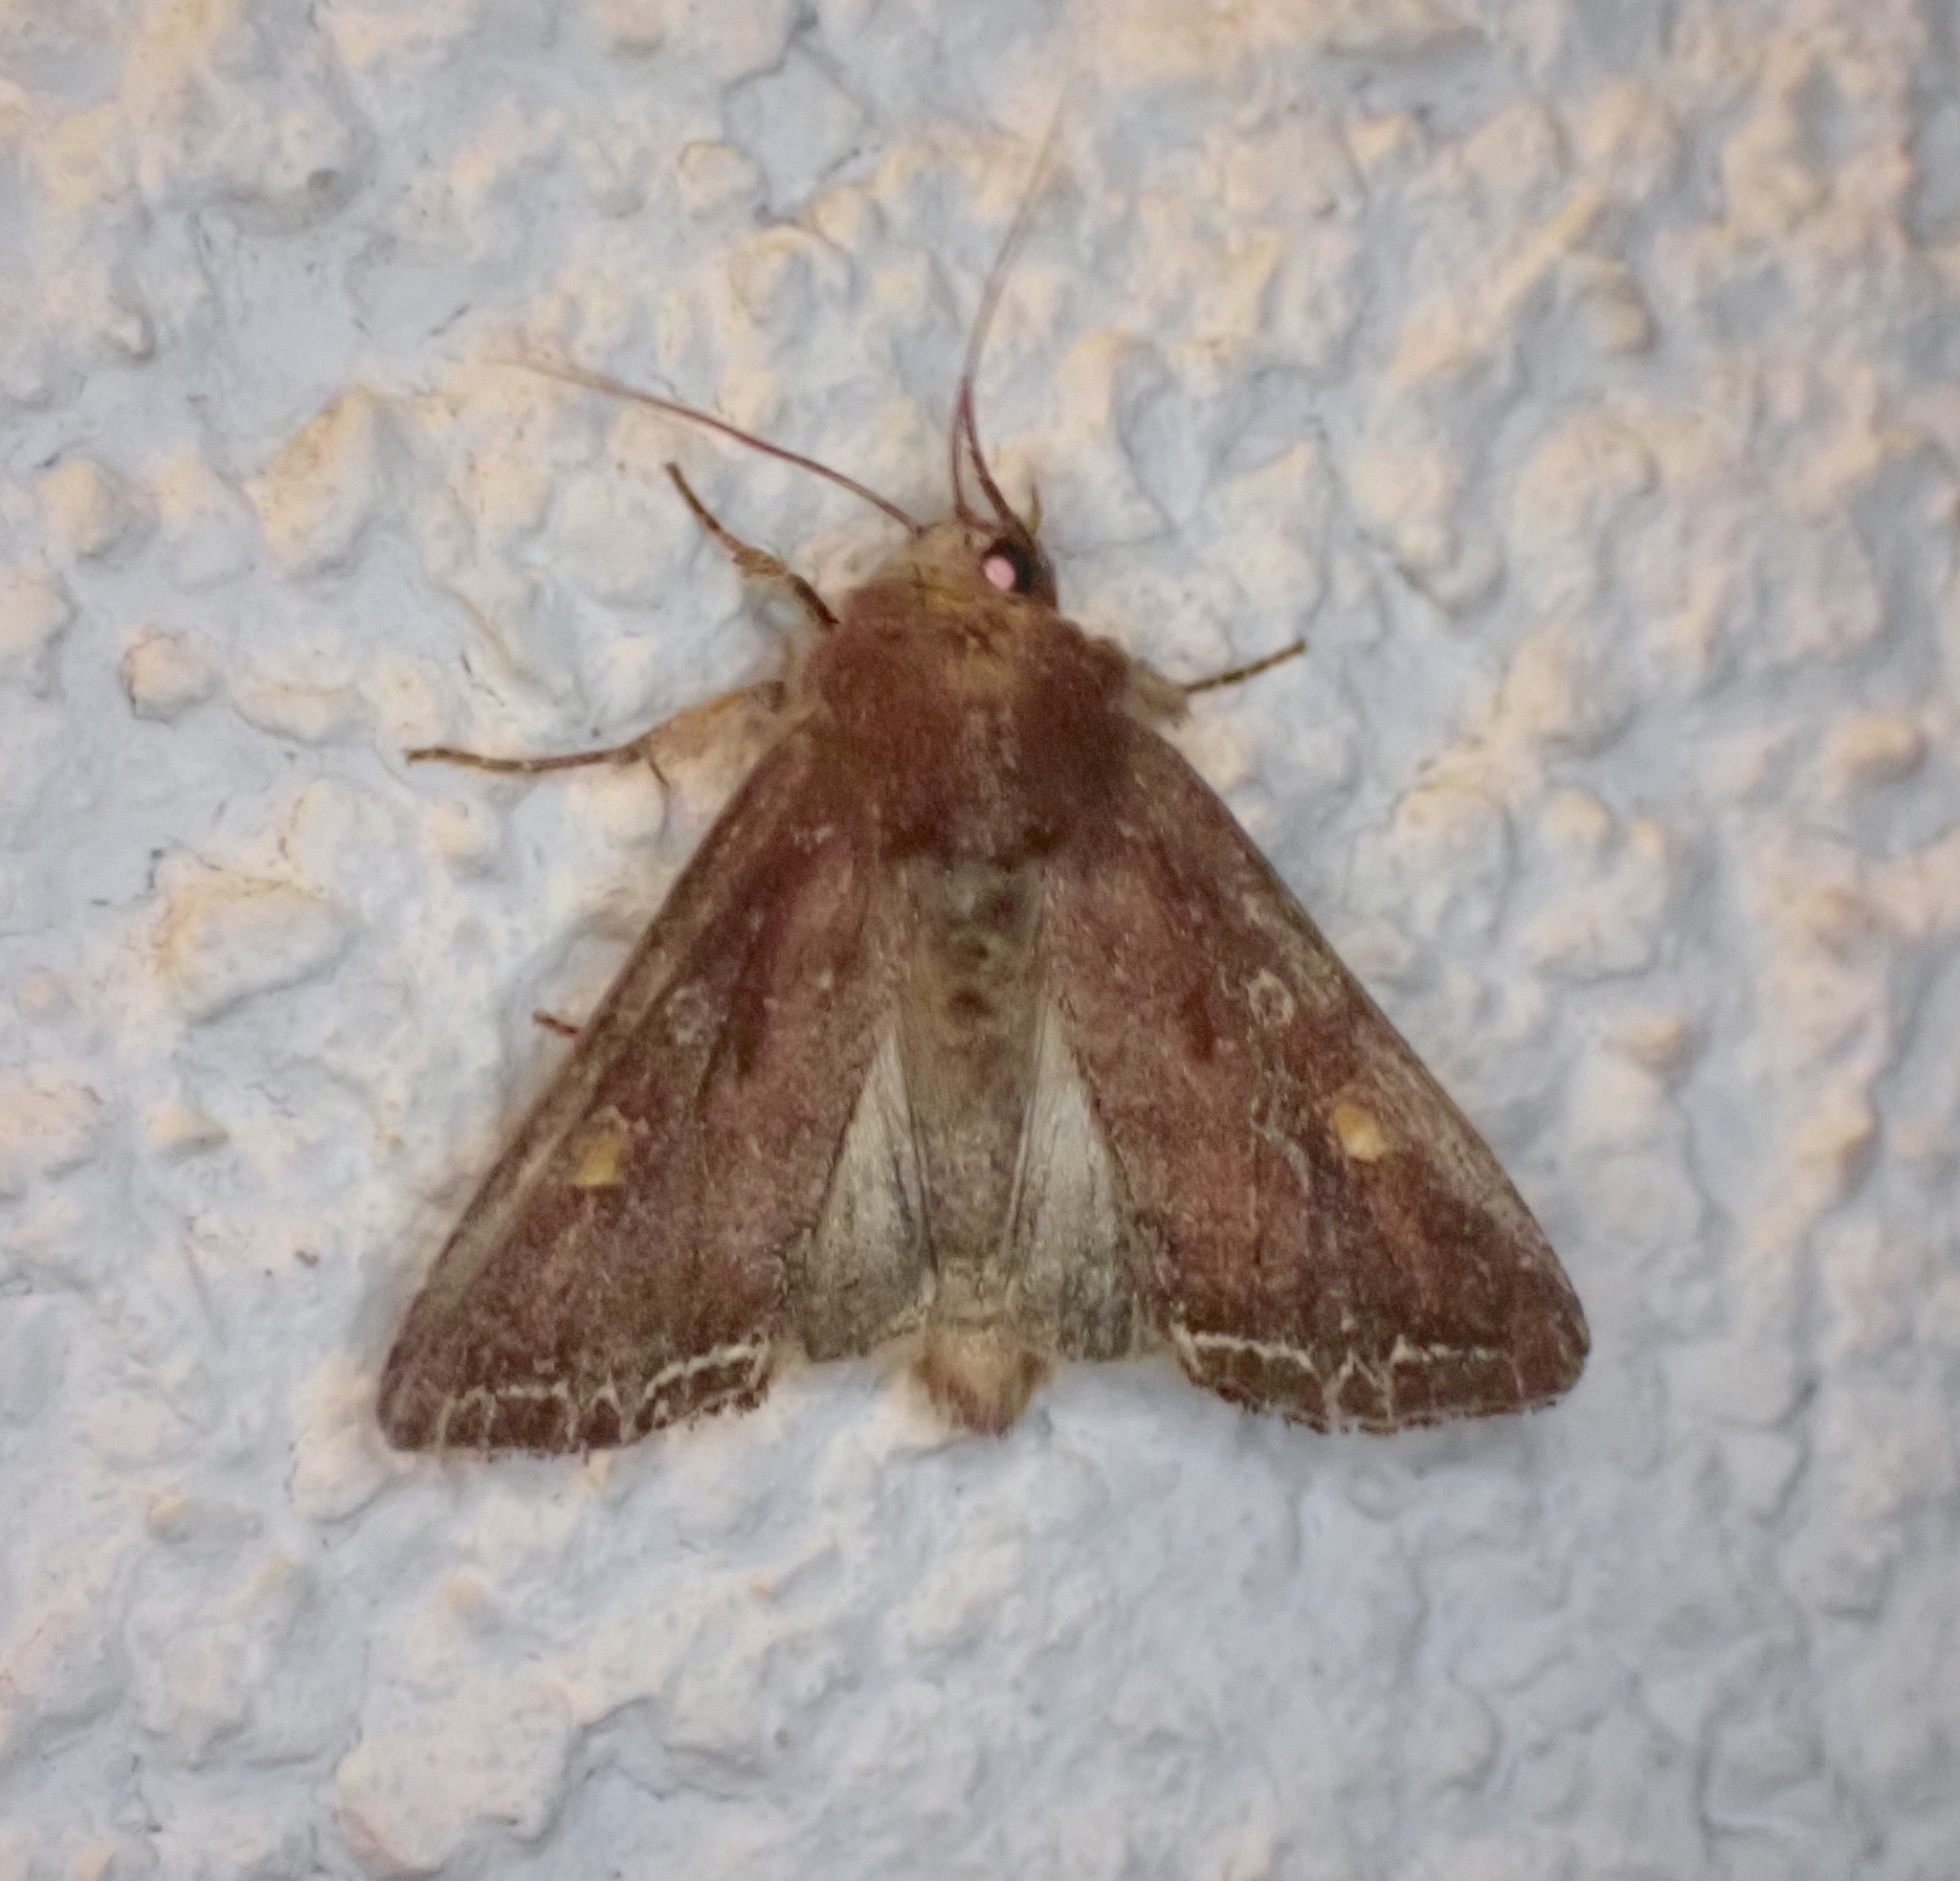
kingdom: Animalia
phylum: Arthropoda
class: Insecta
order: Lepidoptera
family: Noctuidae
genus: Lacanobia
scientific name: Lacanobia oleracea
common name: Bright-line brown-eye
